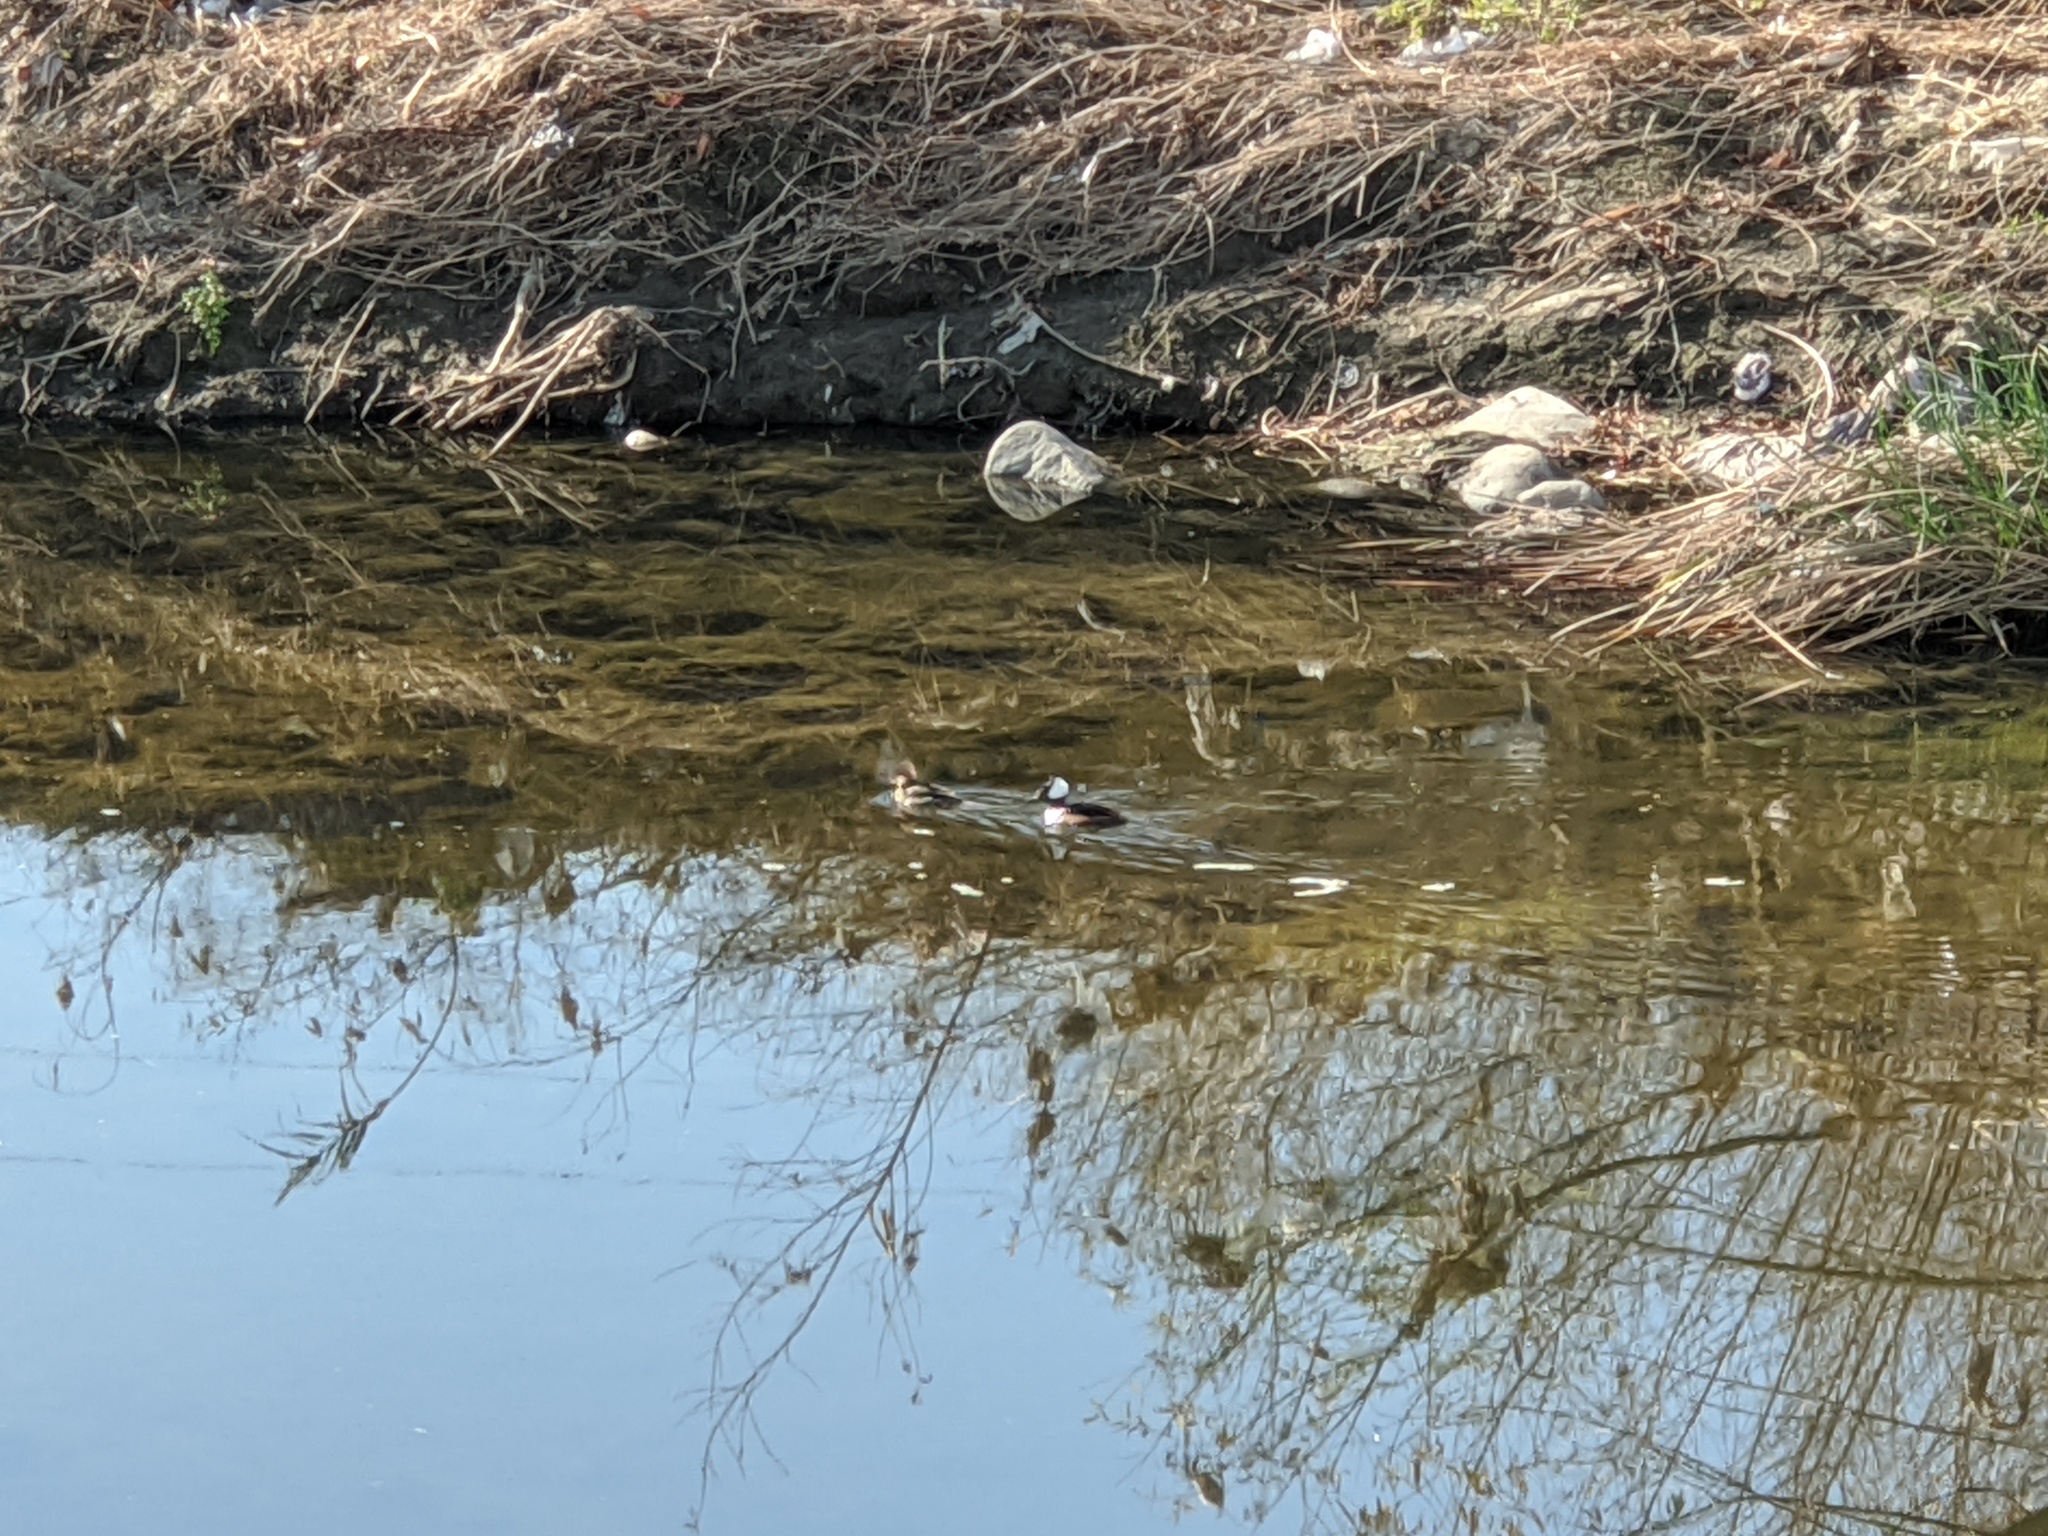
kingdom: Animalia
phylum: Chordata
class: Aves
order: Anseriformes
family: Anatidae
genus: Lophodytes
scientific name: Lophodytes cucullatus
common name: Hooded merganser
